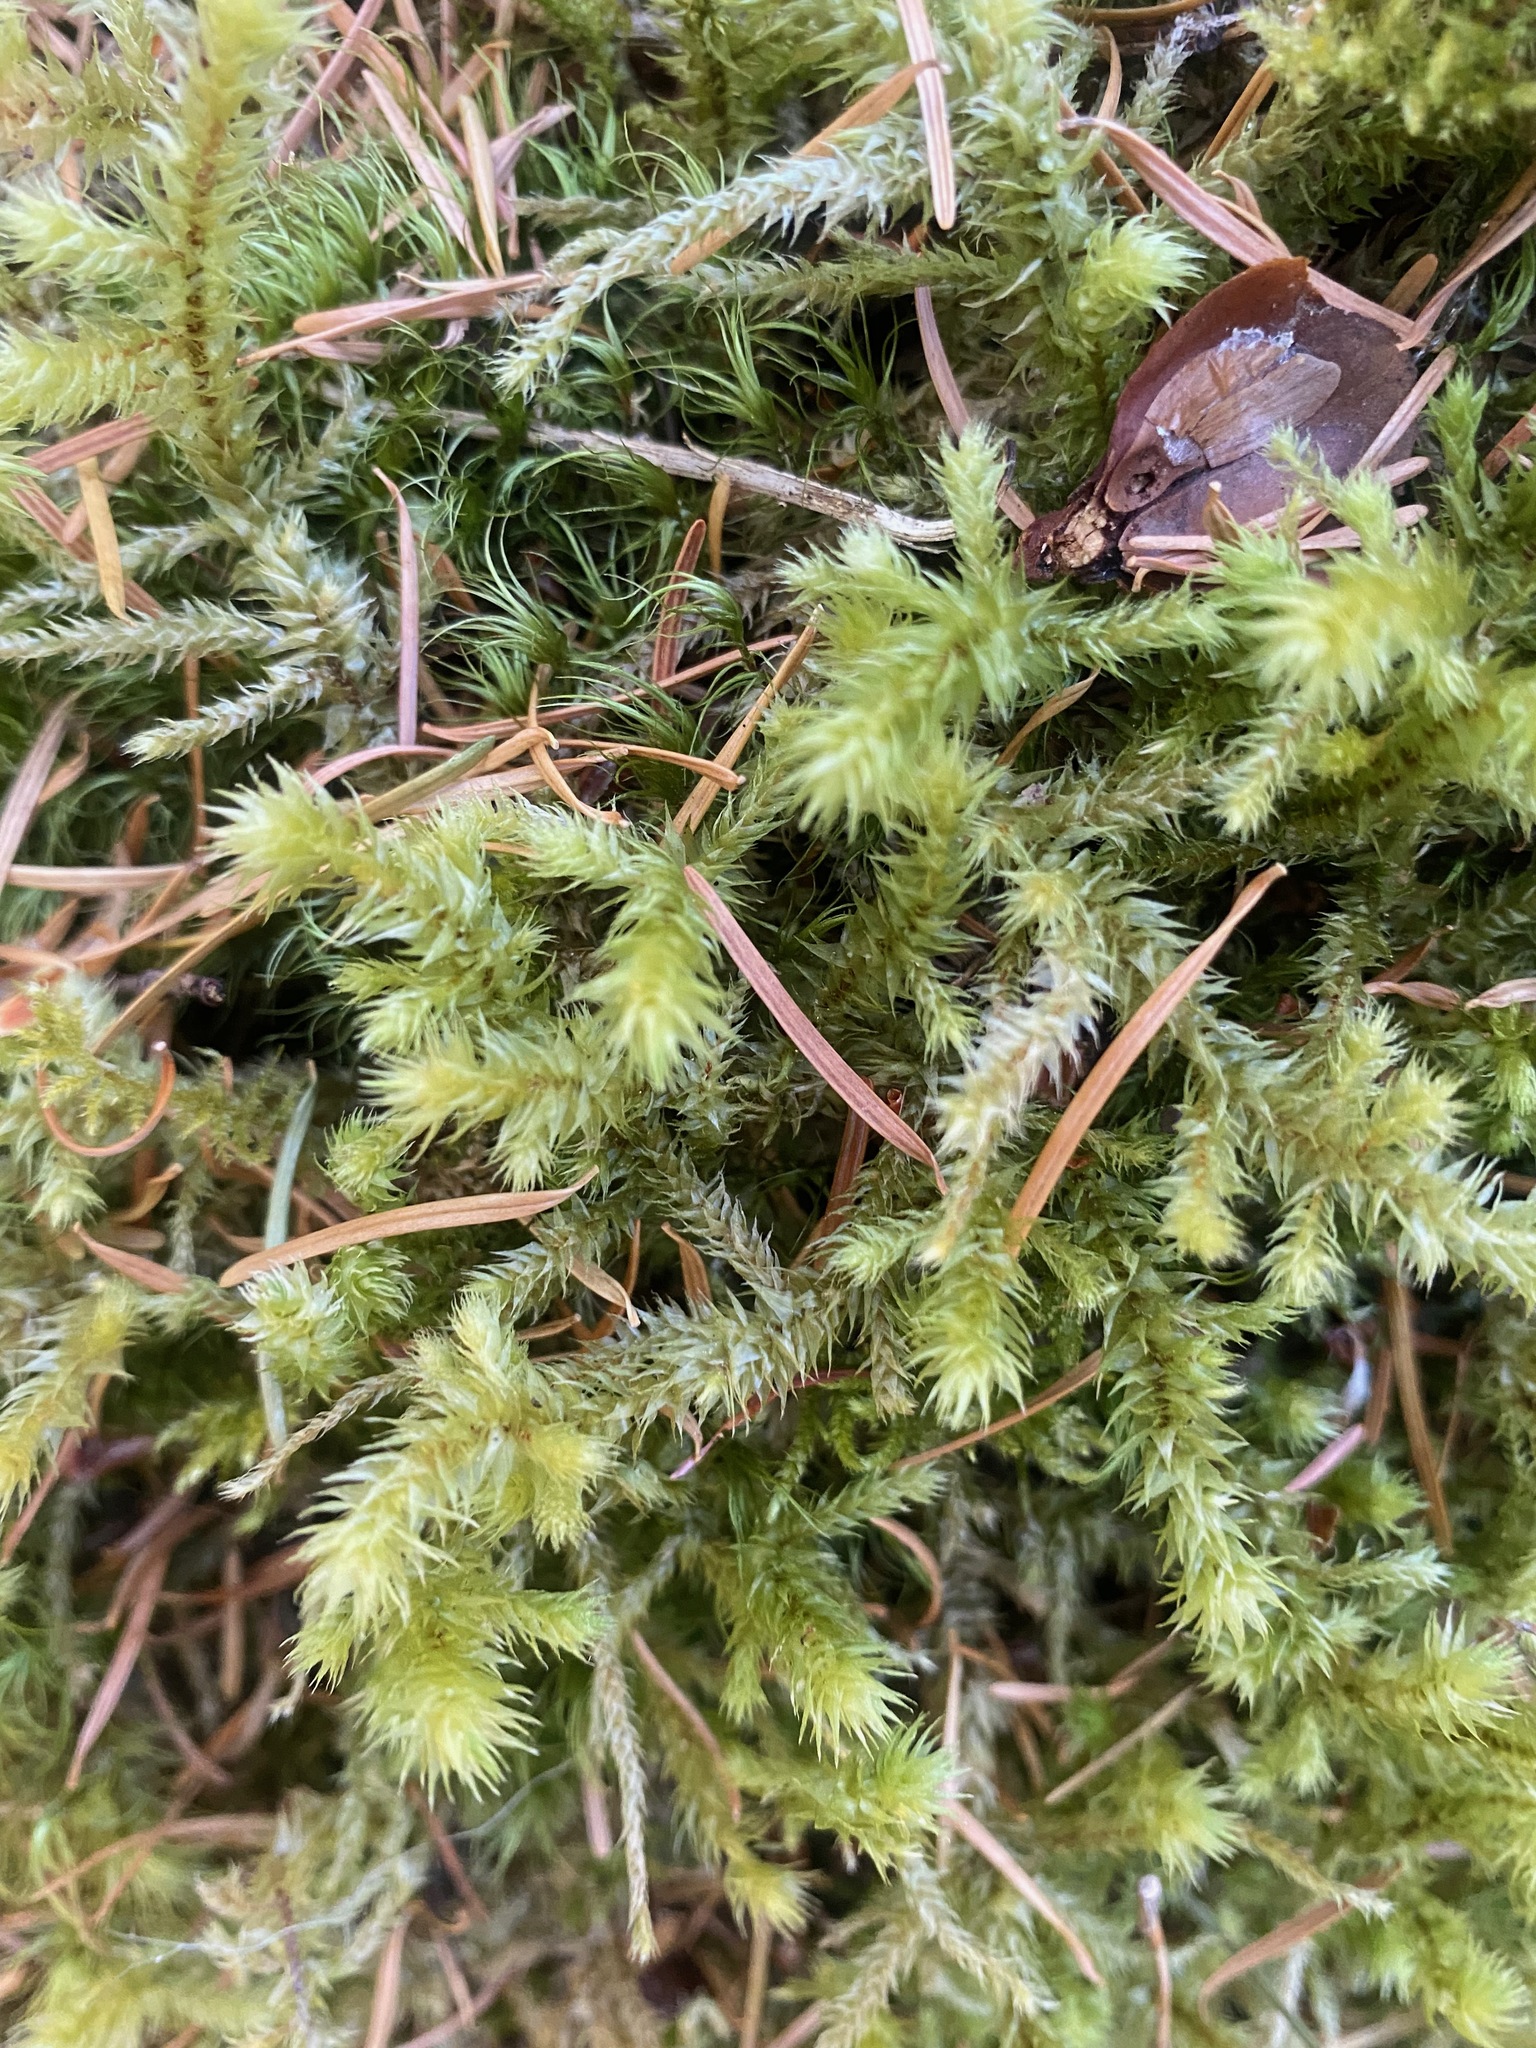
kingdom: Plantae
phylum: Bryophyta
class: Bryopsida
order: Hypnales
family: Hylocomiaceae
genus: Hylocomiadelphus
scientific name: Hylocomiadelphus triquetrus
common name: Rough goose neck moss
